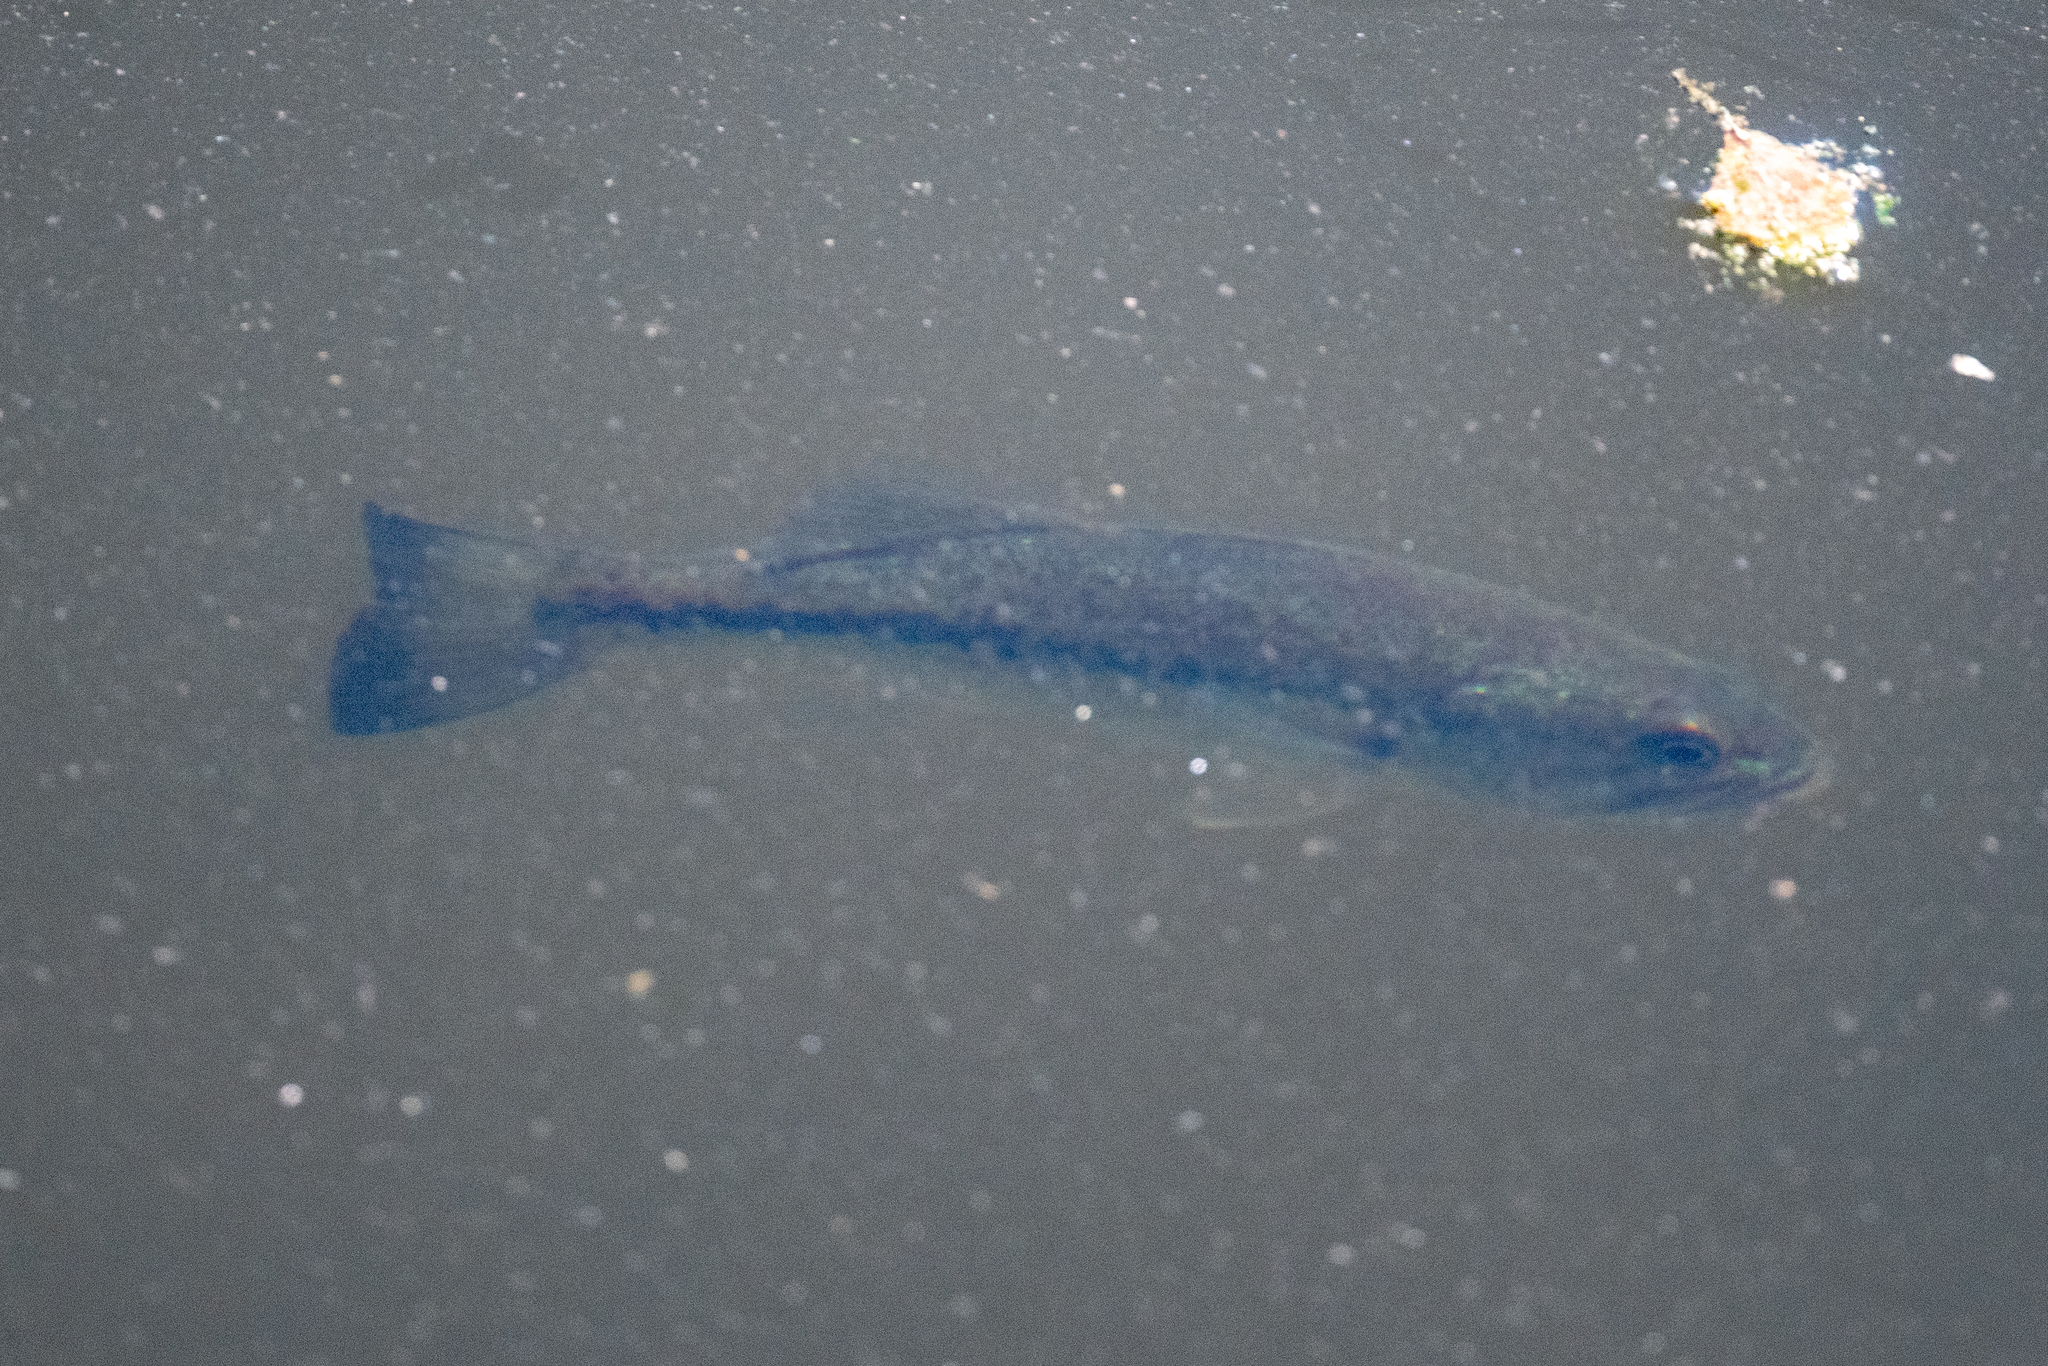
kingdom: Animalia
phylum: Chordata
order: Perciformes
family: Centrarchidae
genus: Micropterus
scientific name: Micropterus
